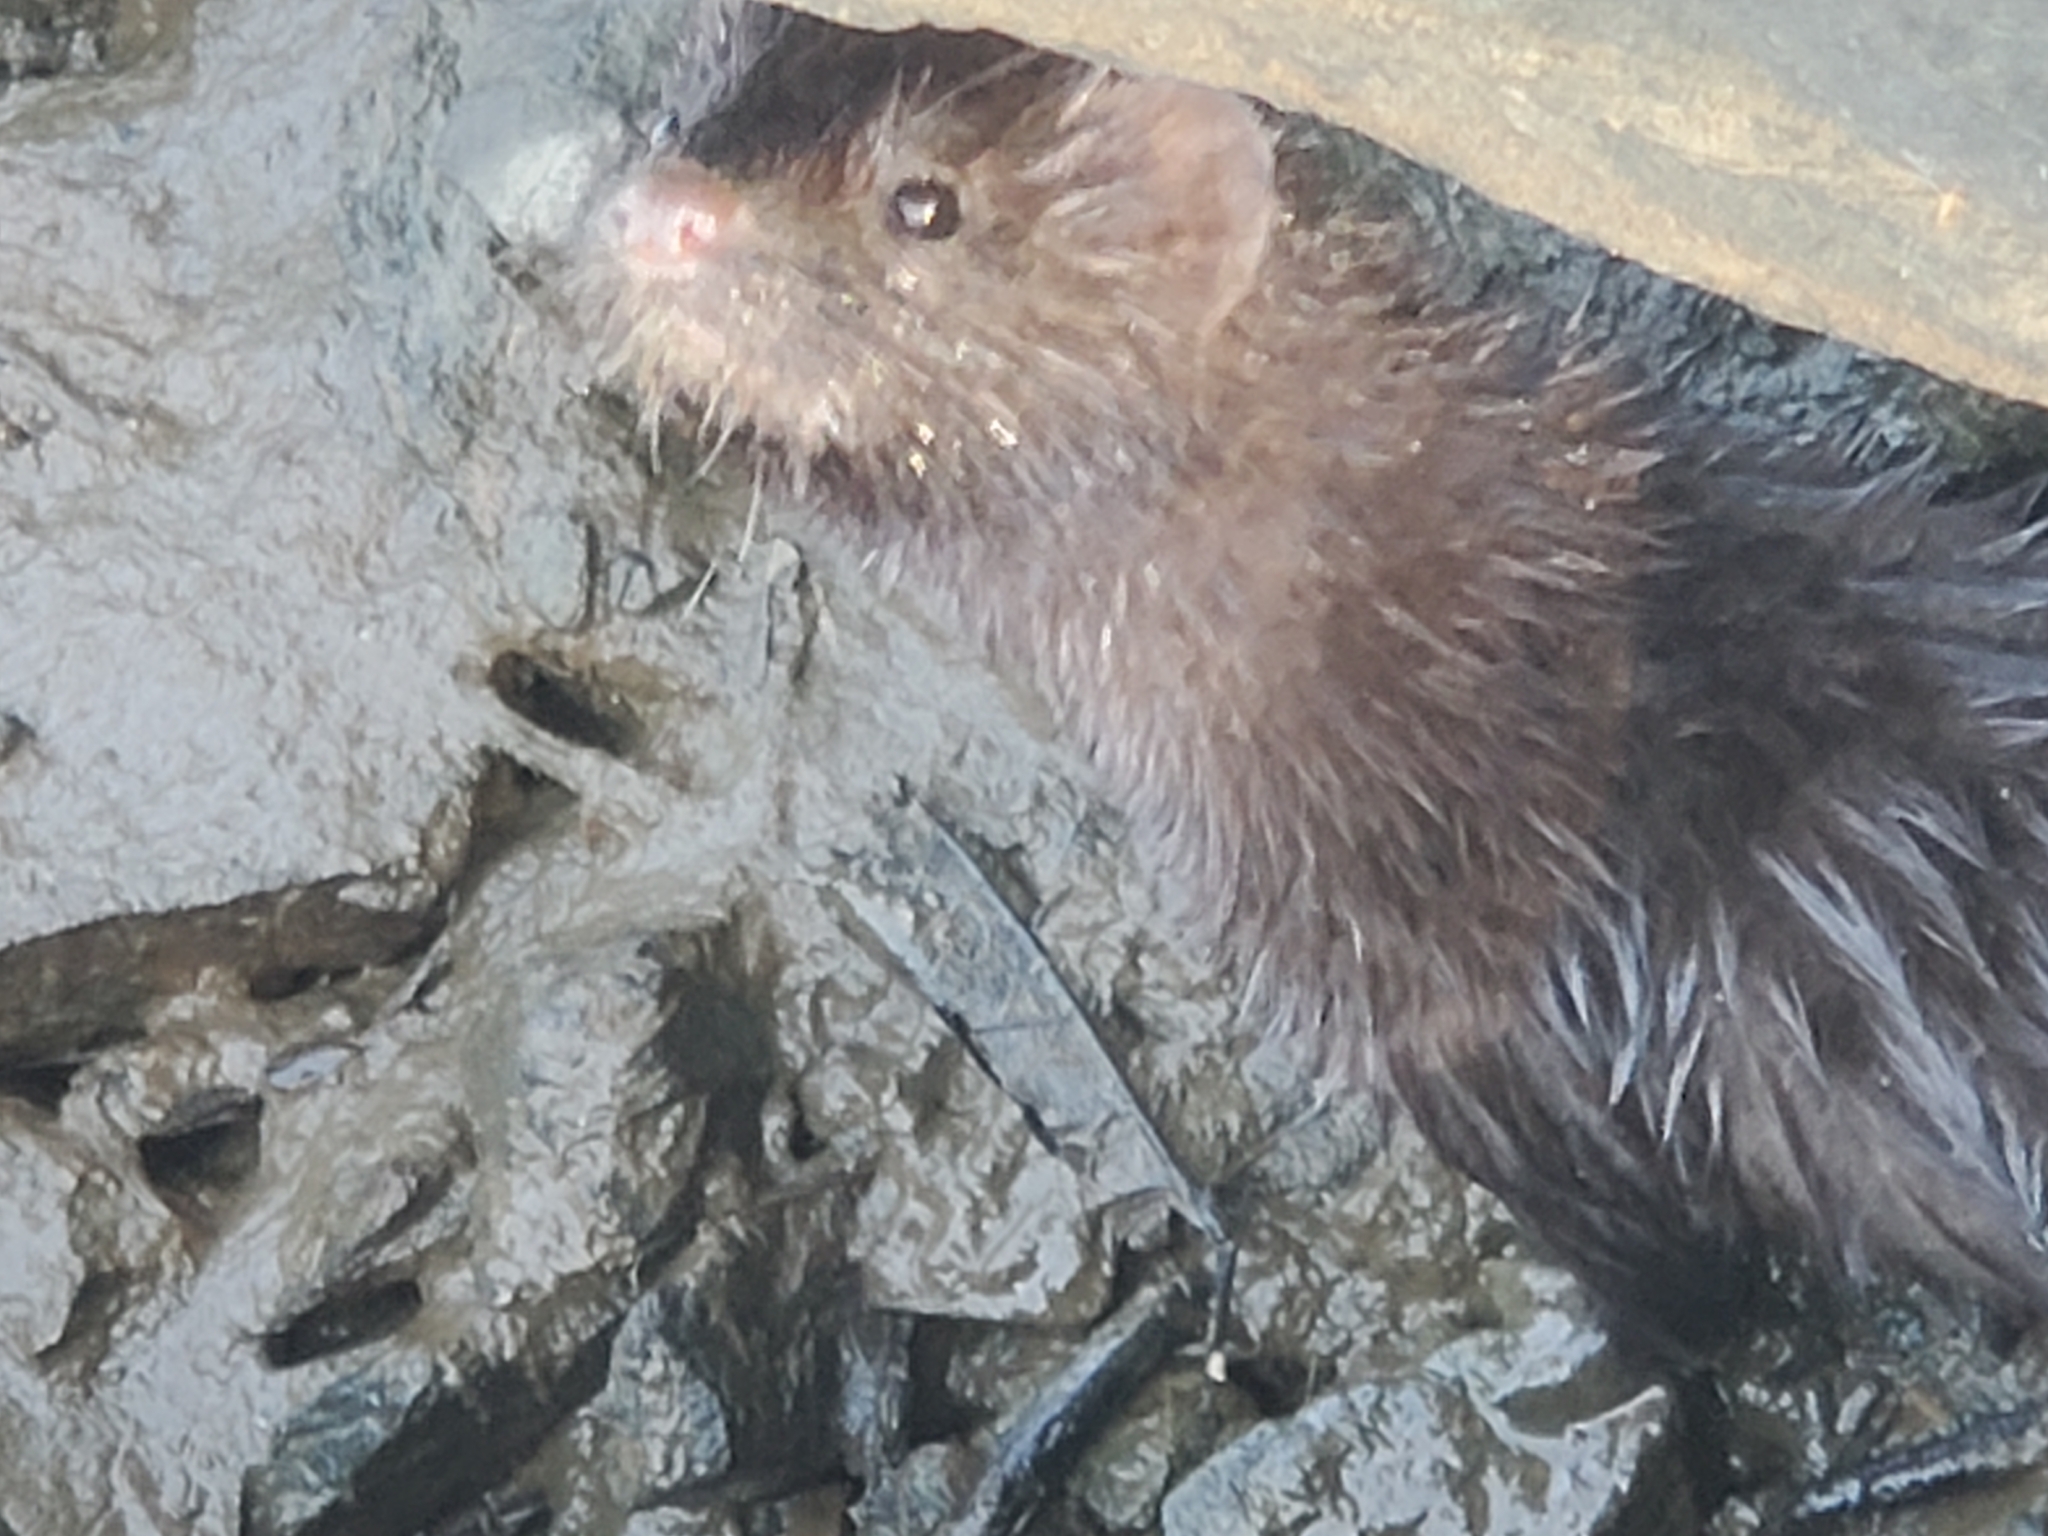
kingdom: Animalia
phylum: Chordata
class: Mammalia
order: Carnivora
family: Mustelidae
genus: Mustela
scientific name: Mustela
